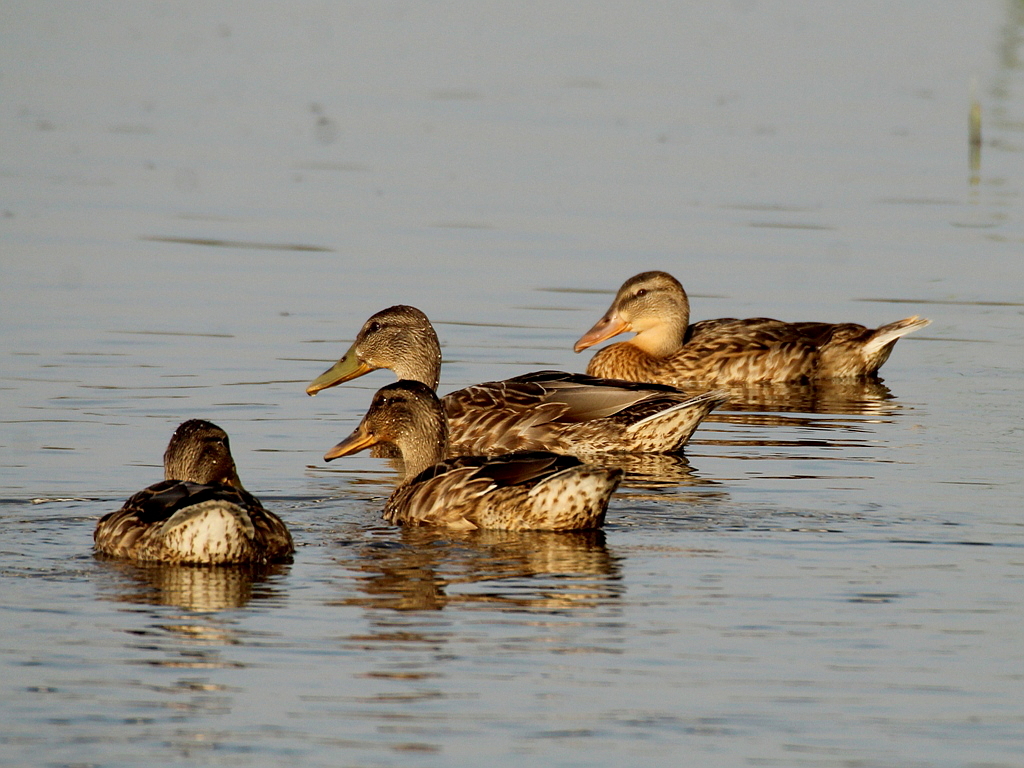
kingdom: Animalia
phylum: Chordata
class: Aves
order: Anseriformes
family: Anatidae
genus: Anas
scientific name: Anas platyrhynchos
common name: Mallard
